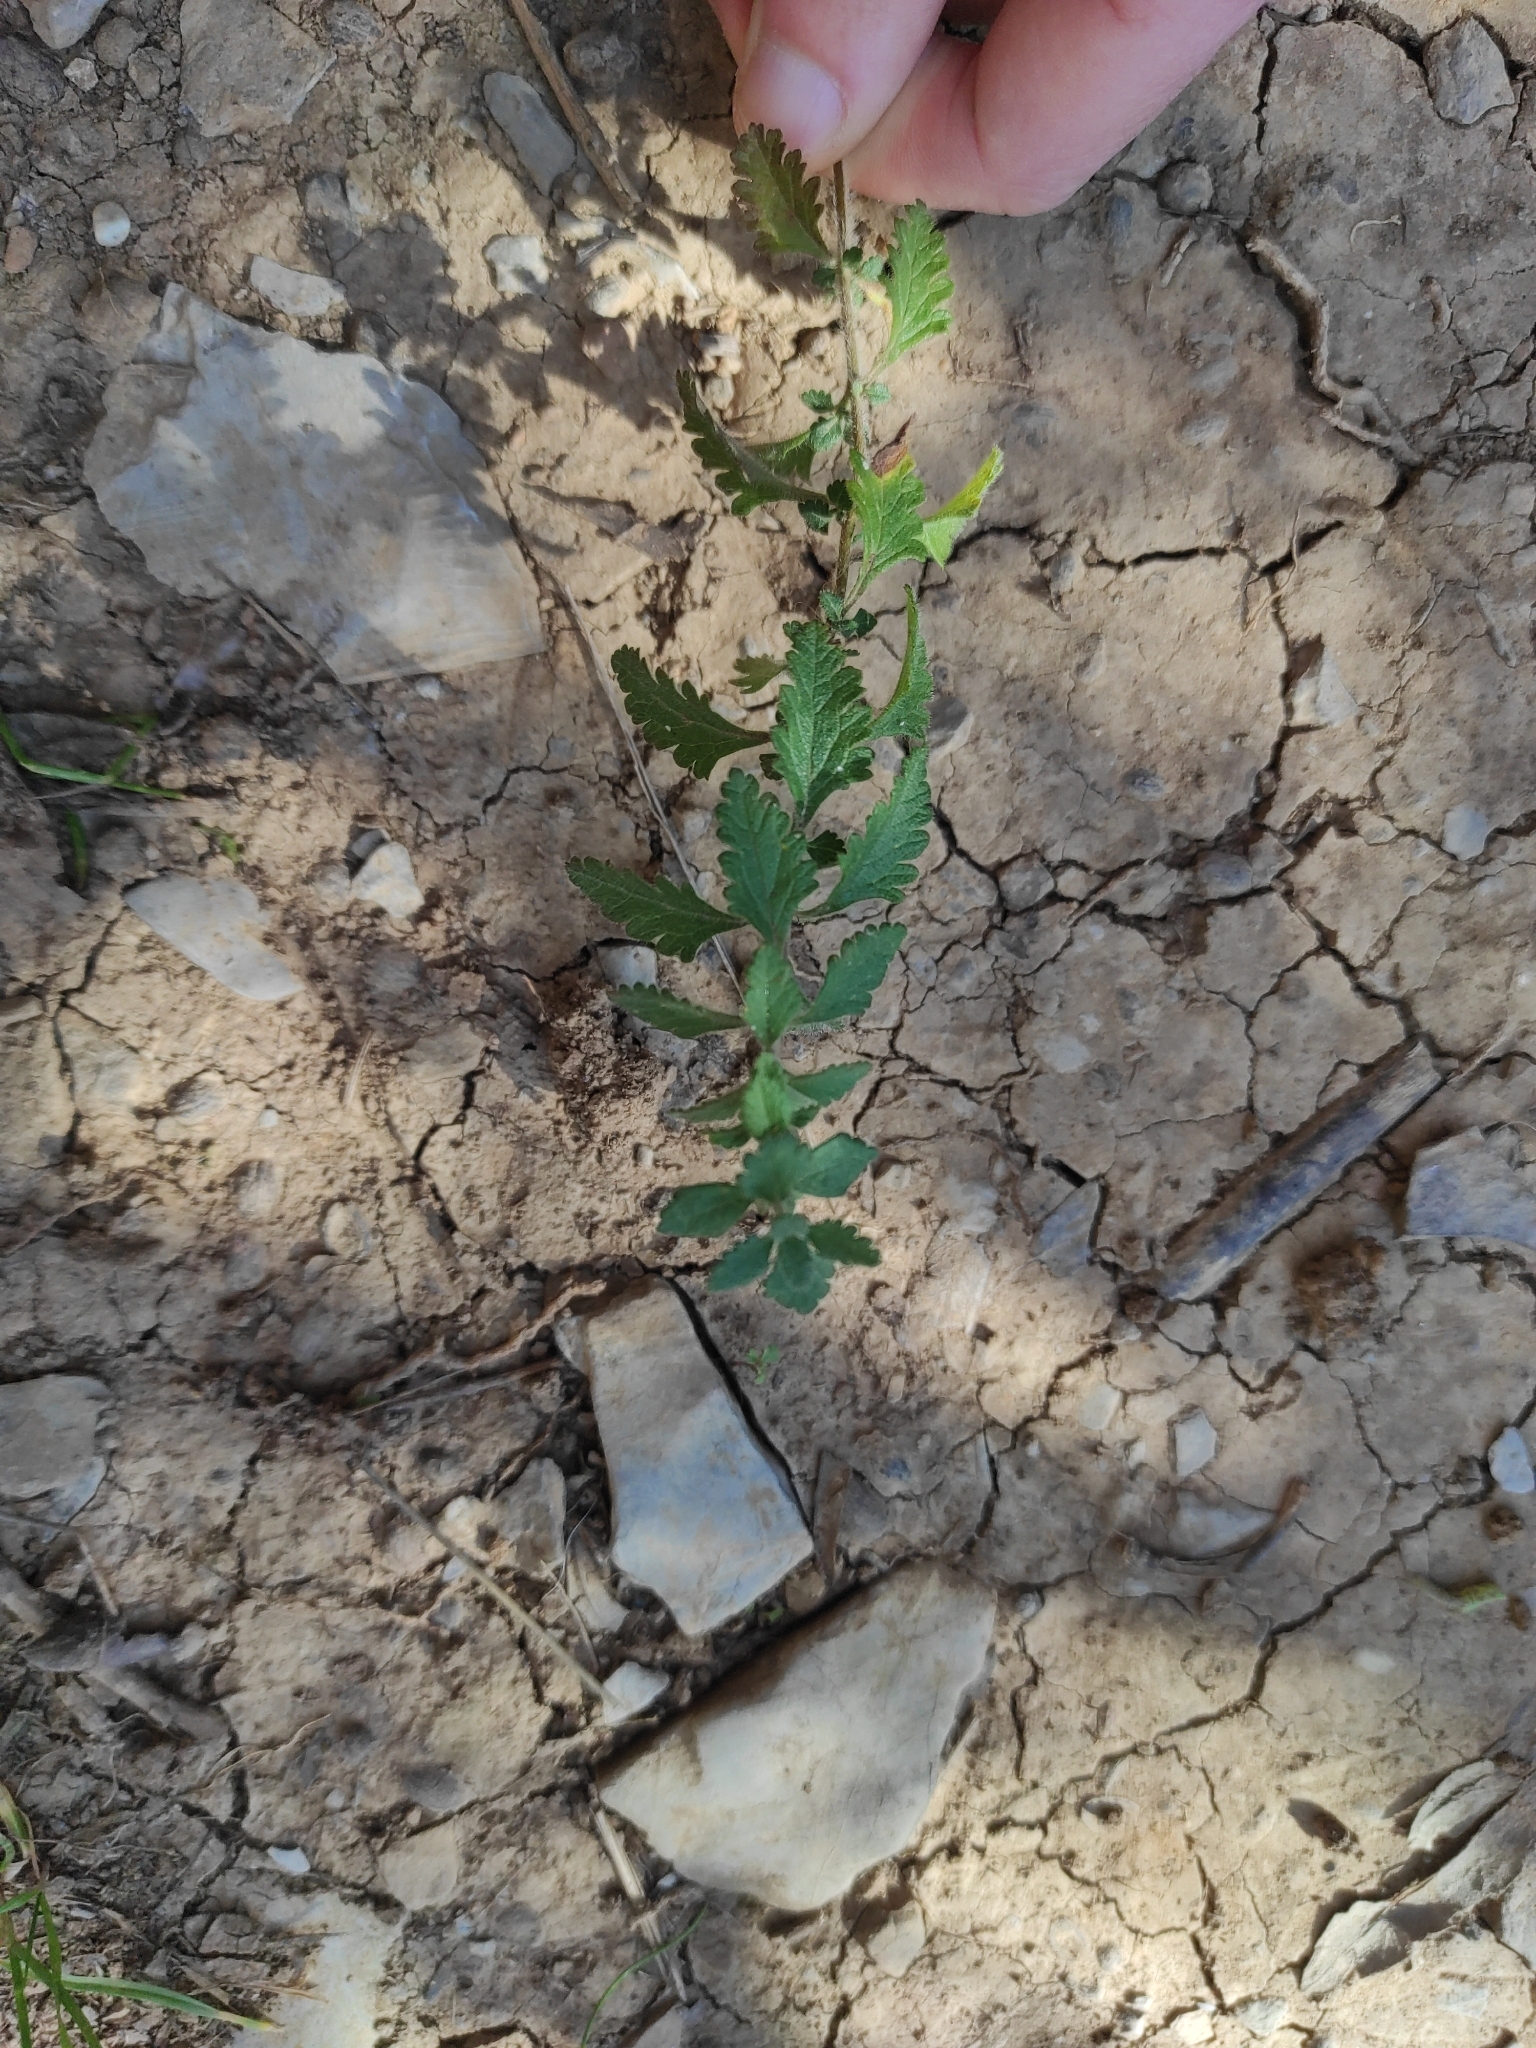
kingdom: Plantae
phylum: Tracheophyta
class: Magnoliopsida
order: Lamiales
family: Lamiaceae
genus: Teucrium
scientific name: Teucrium chamaedrys
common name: Wall germander
